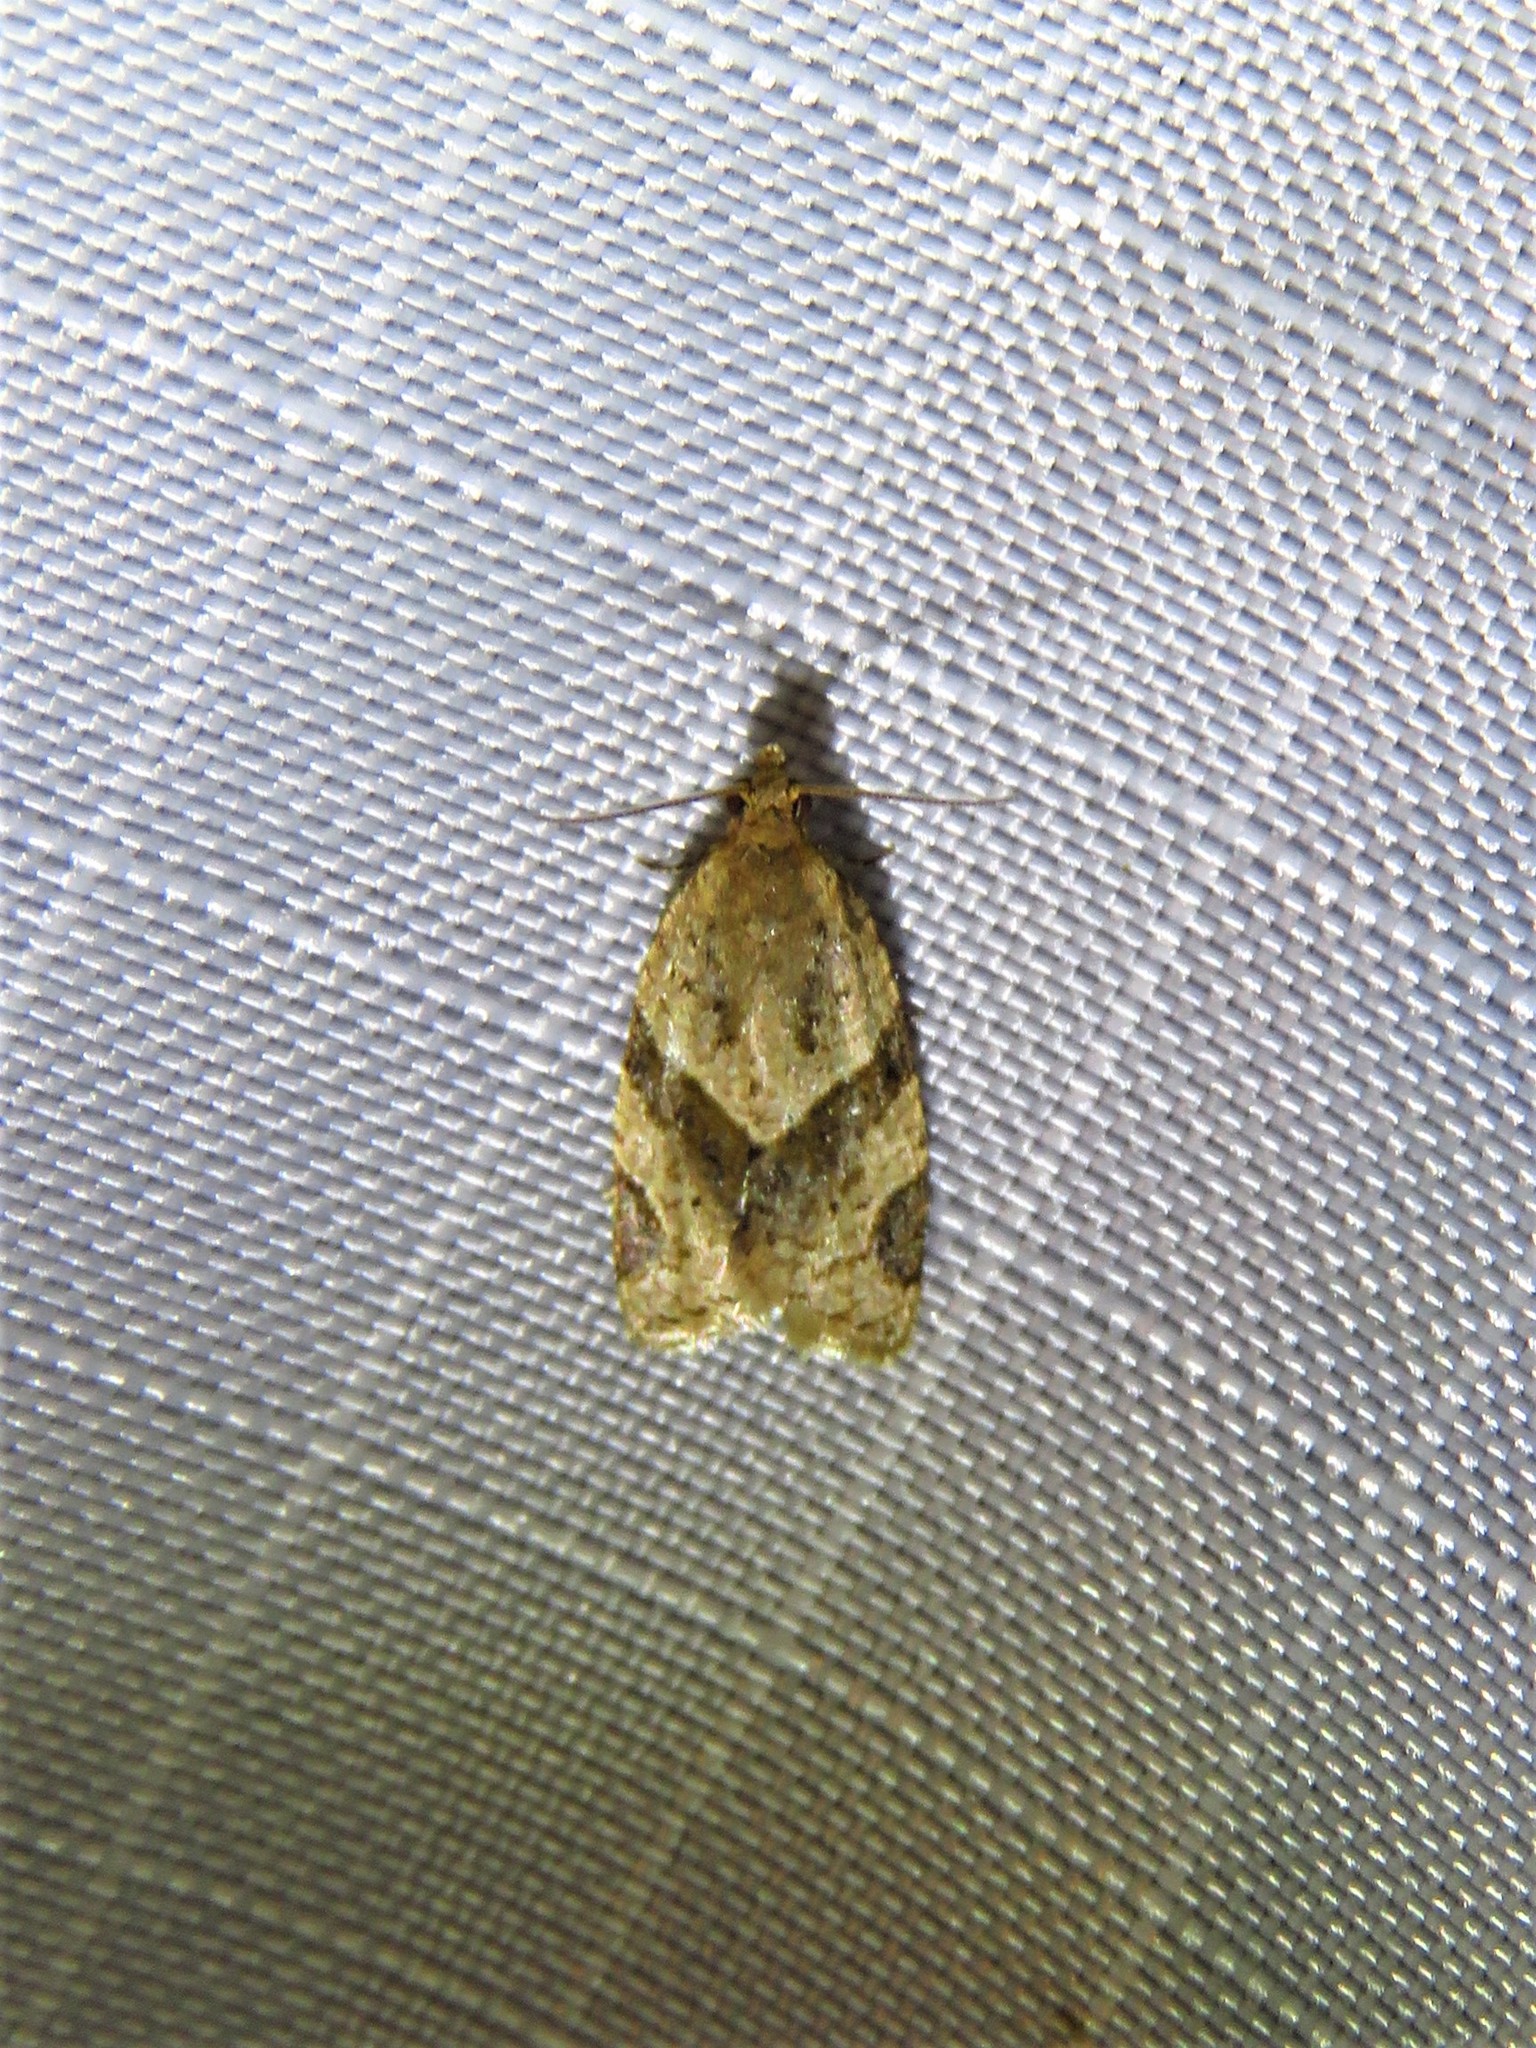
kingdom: Animalia
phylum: Arthropoda
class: Insecta
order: Lepidoptera
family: Tortricidae
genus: Clepsis
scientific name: Clepsis peritana
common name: Garden tortrix
